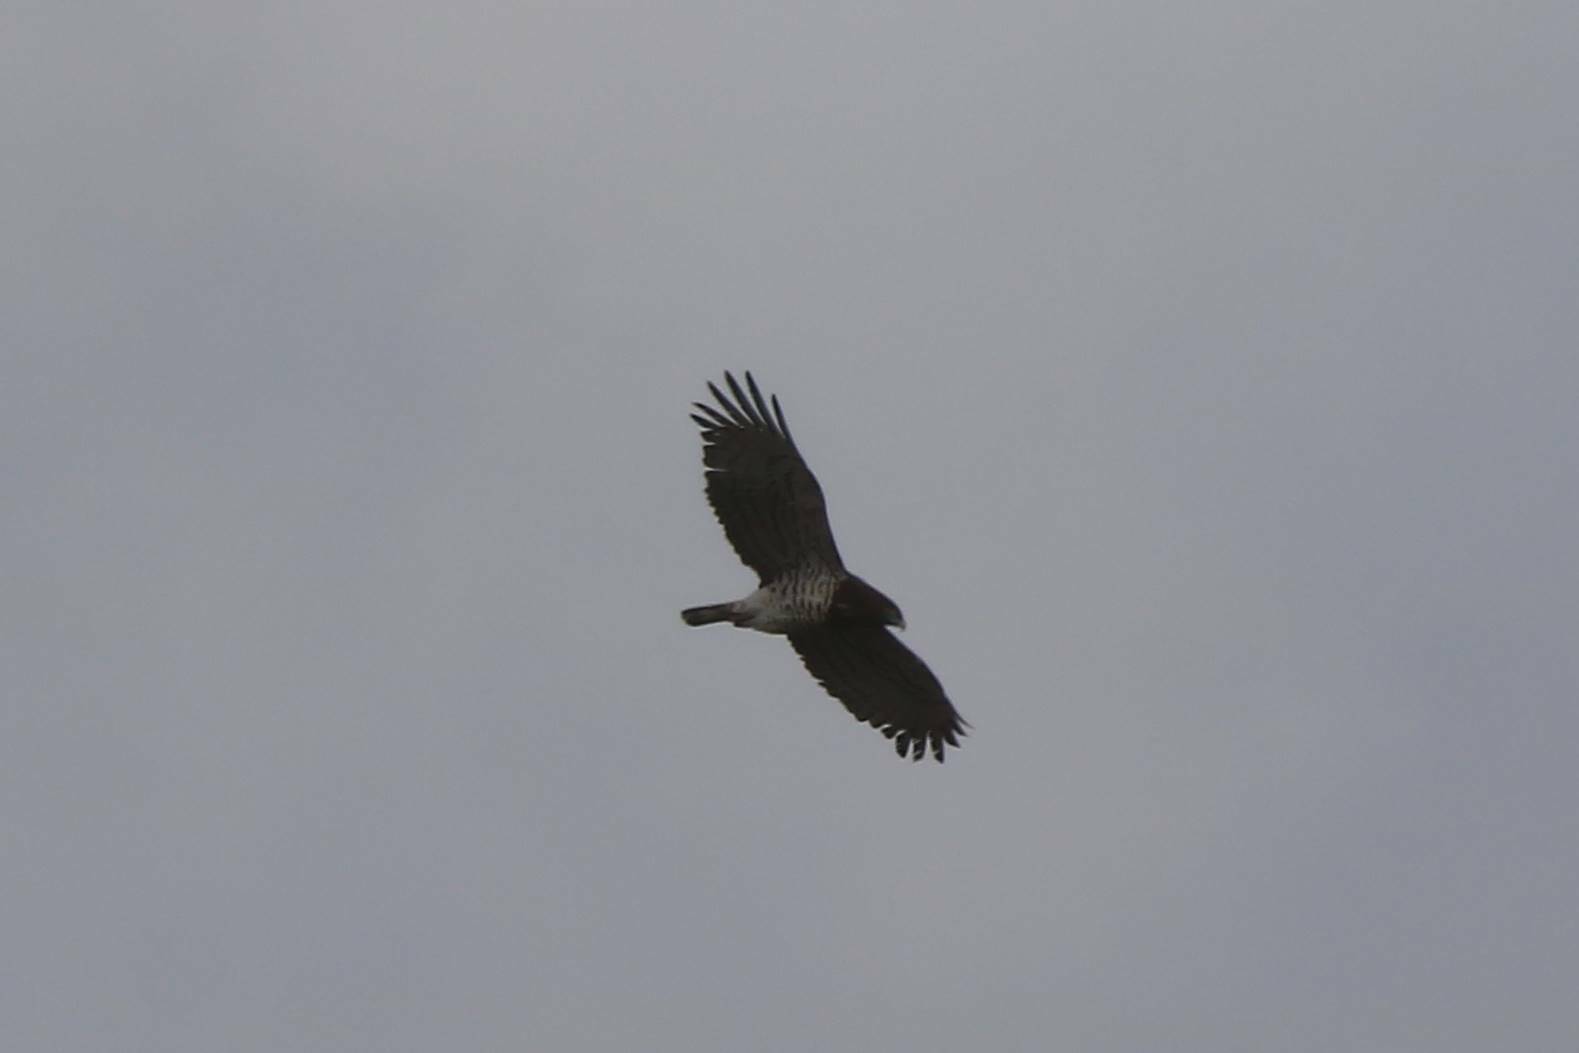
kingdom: Animalia
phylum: Chordata
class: Aves
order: Accipitriformes
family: Accipitridae
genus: Circaetus
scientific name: Circaetus gallicus
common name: Short-toed snake eagle
